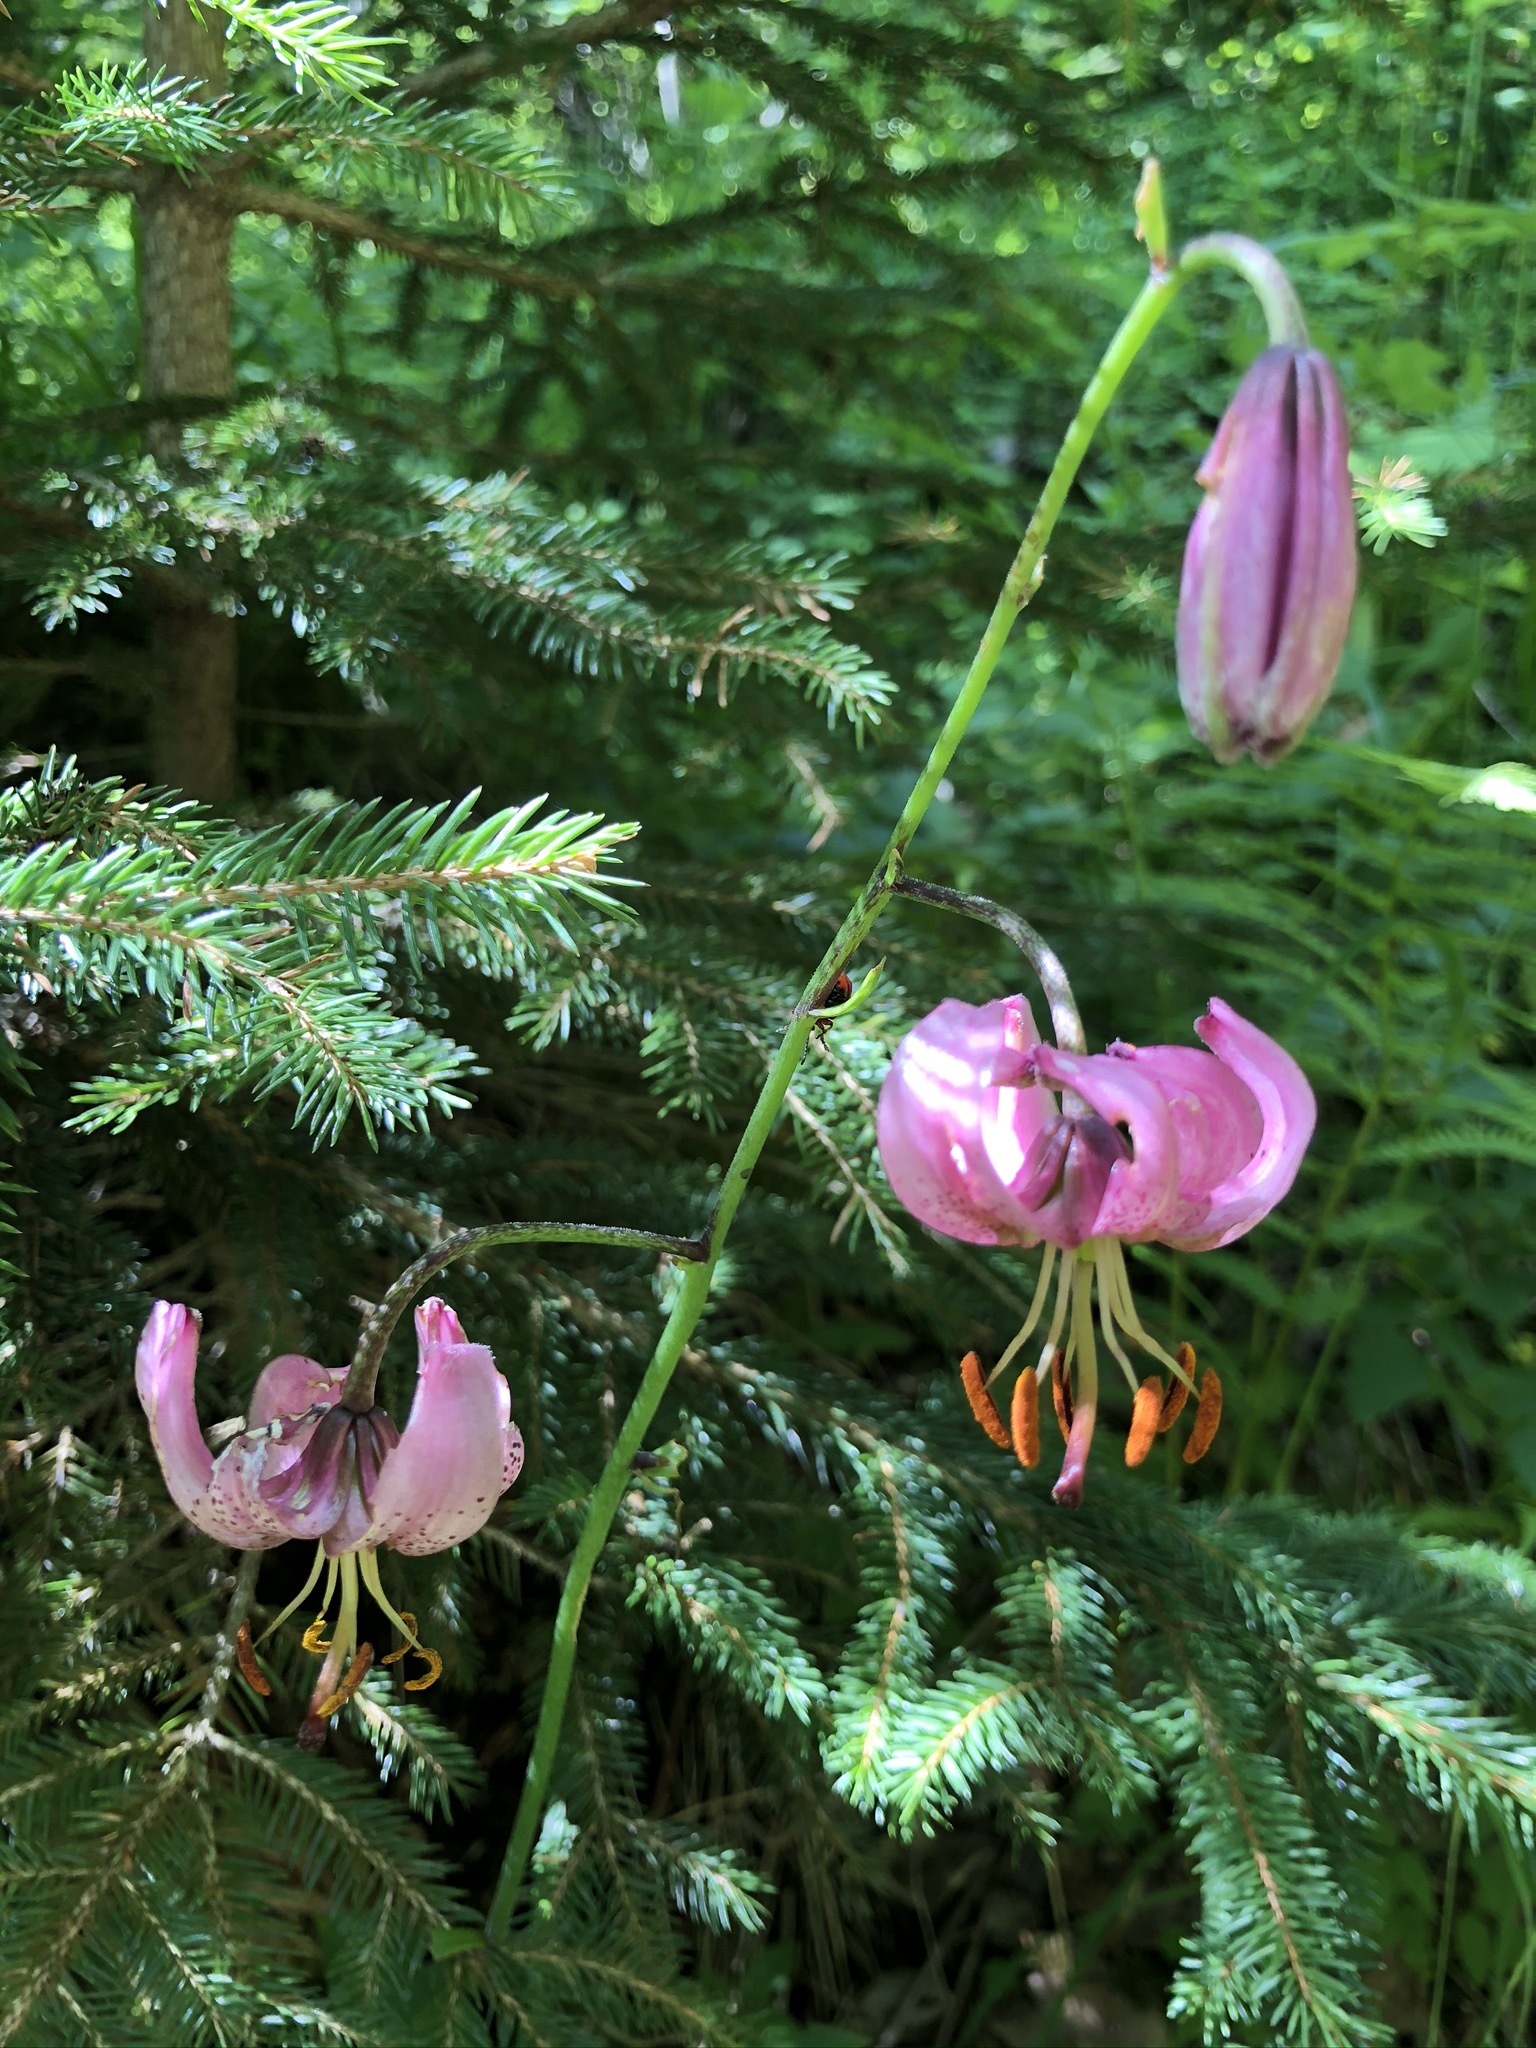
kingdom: Plantae
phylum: Tracheophyta
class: Liliopsida
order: Liliales
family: Liliaceae
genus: Lilium
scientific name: Lilium martagon
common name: Martagon lily
